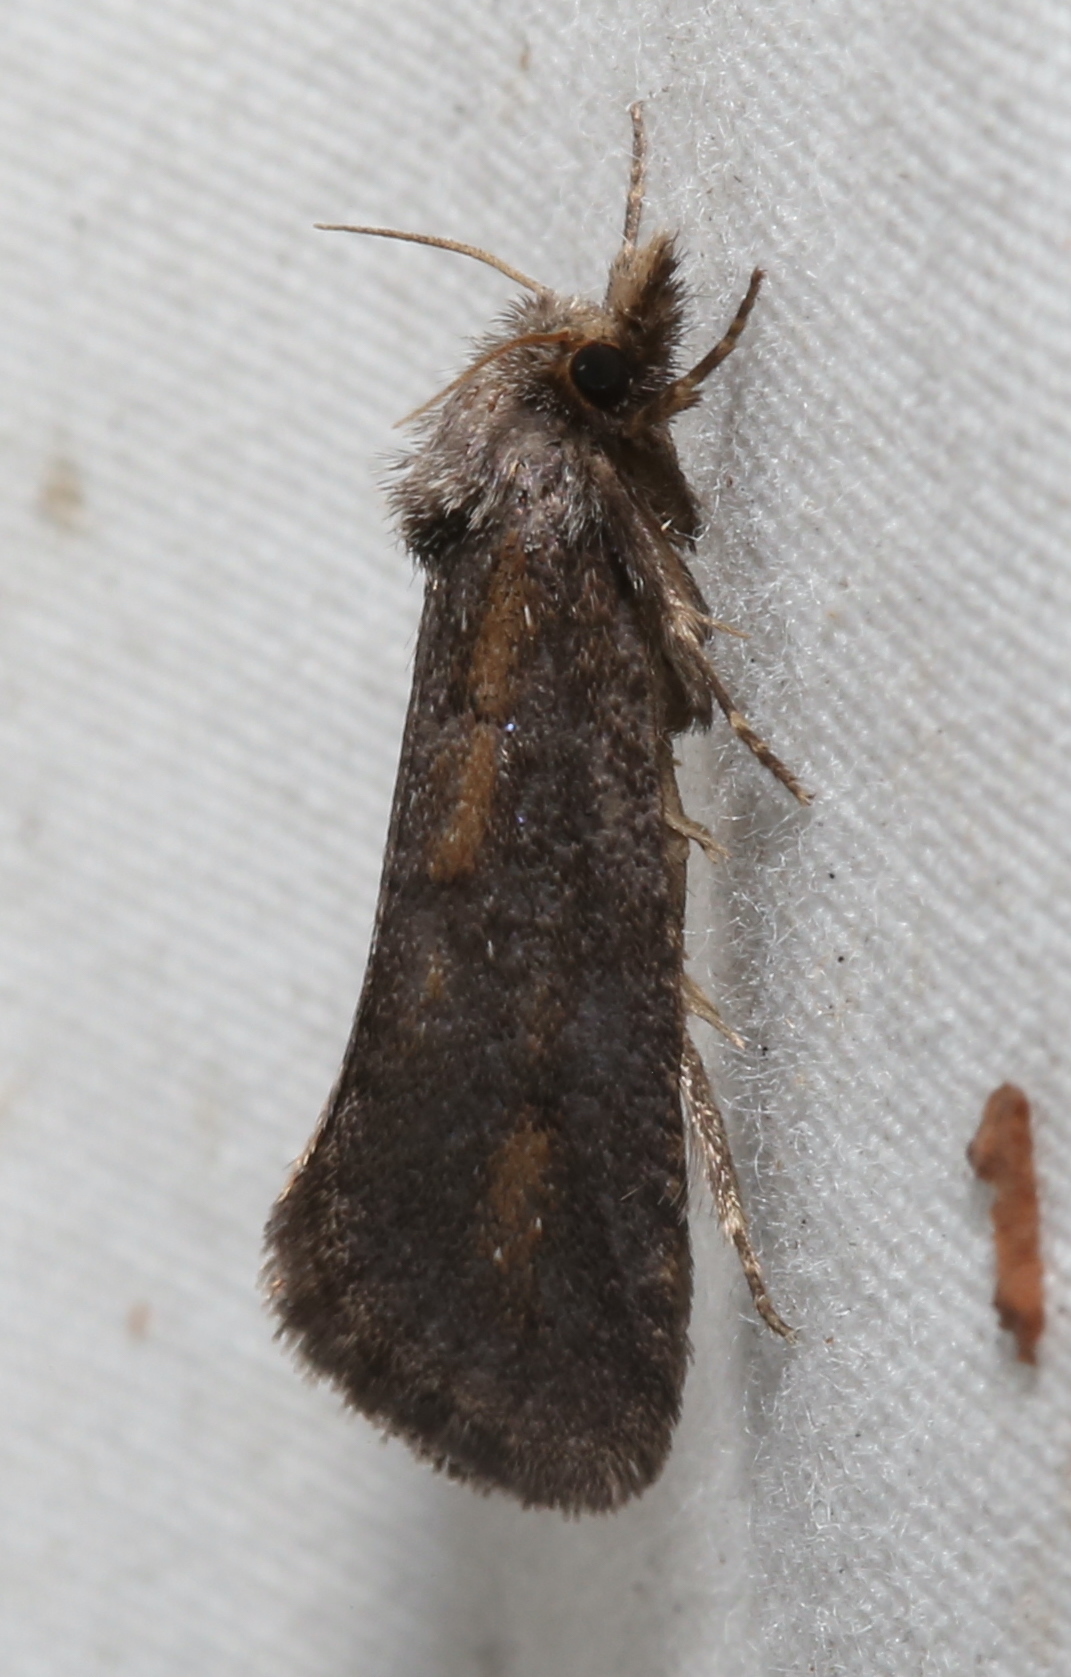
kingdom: Animalia
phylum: Arthropoda
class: Insecta
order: Lepidoptera
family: Tineidae
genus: Acrolophus
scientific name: Acrolophus popeanella
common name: Clemens' grass tubeworm moth
